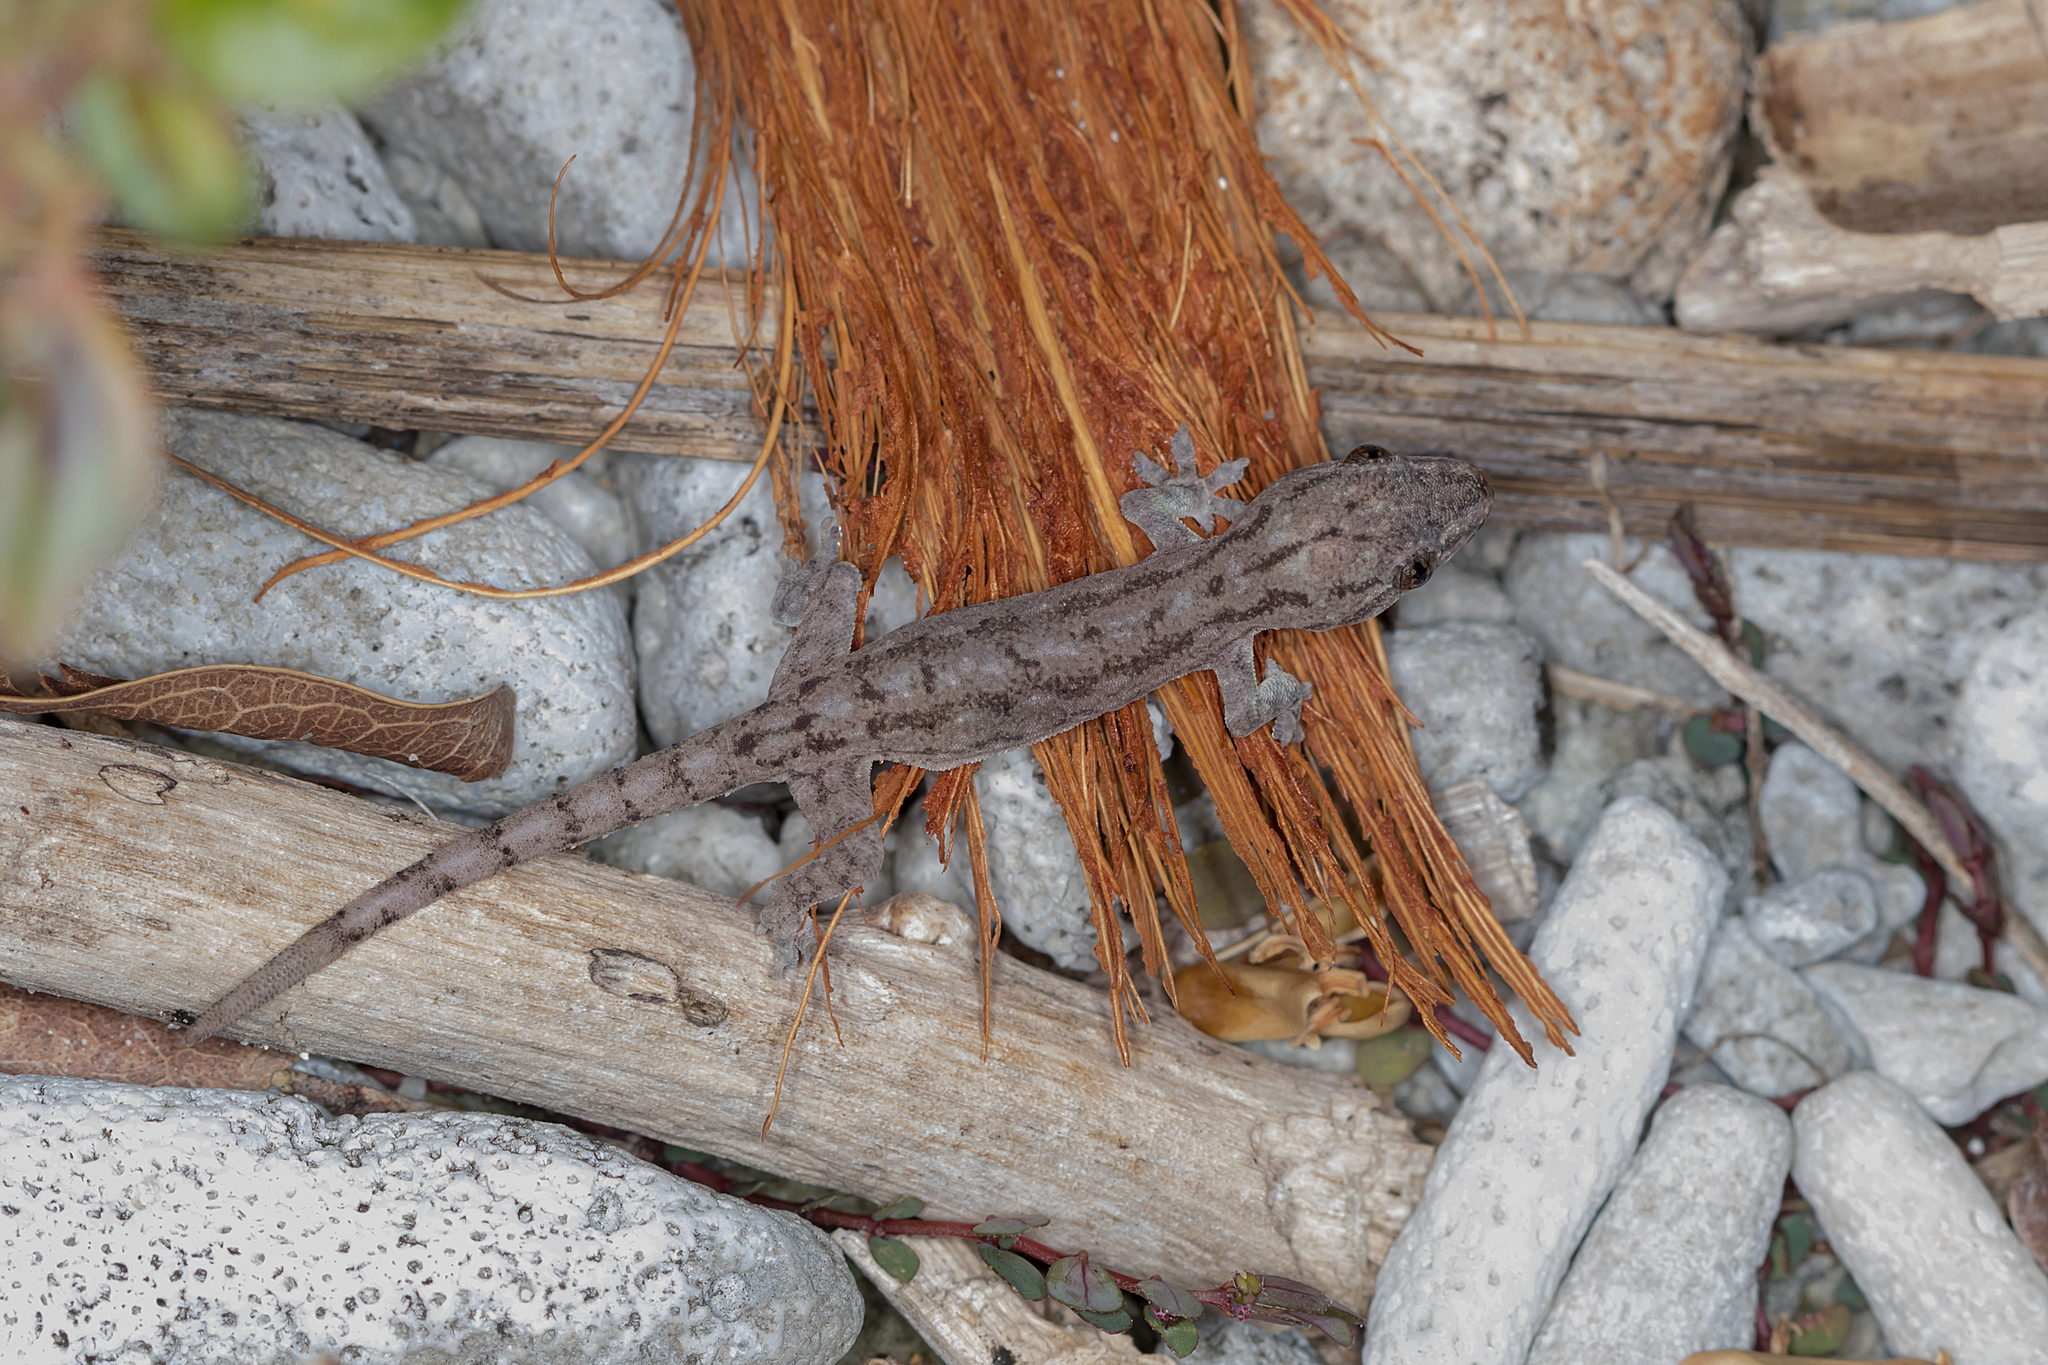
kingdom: Animalia
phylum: Chordata
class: Squamata
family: Gekkonidae
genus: Hemidactylus
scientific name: Hemidactylus frenatus
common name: Common house gecko
